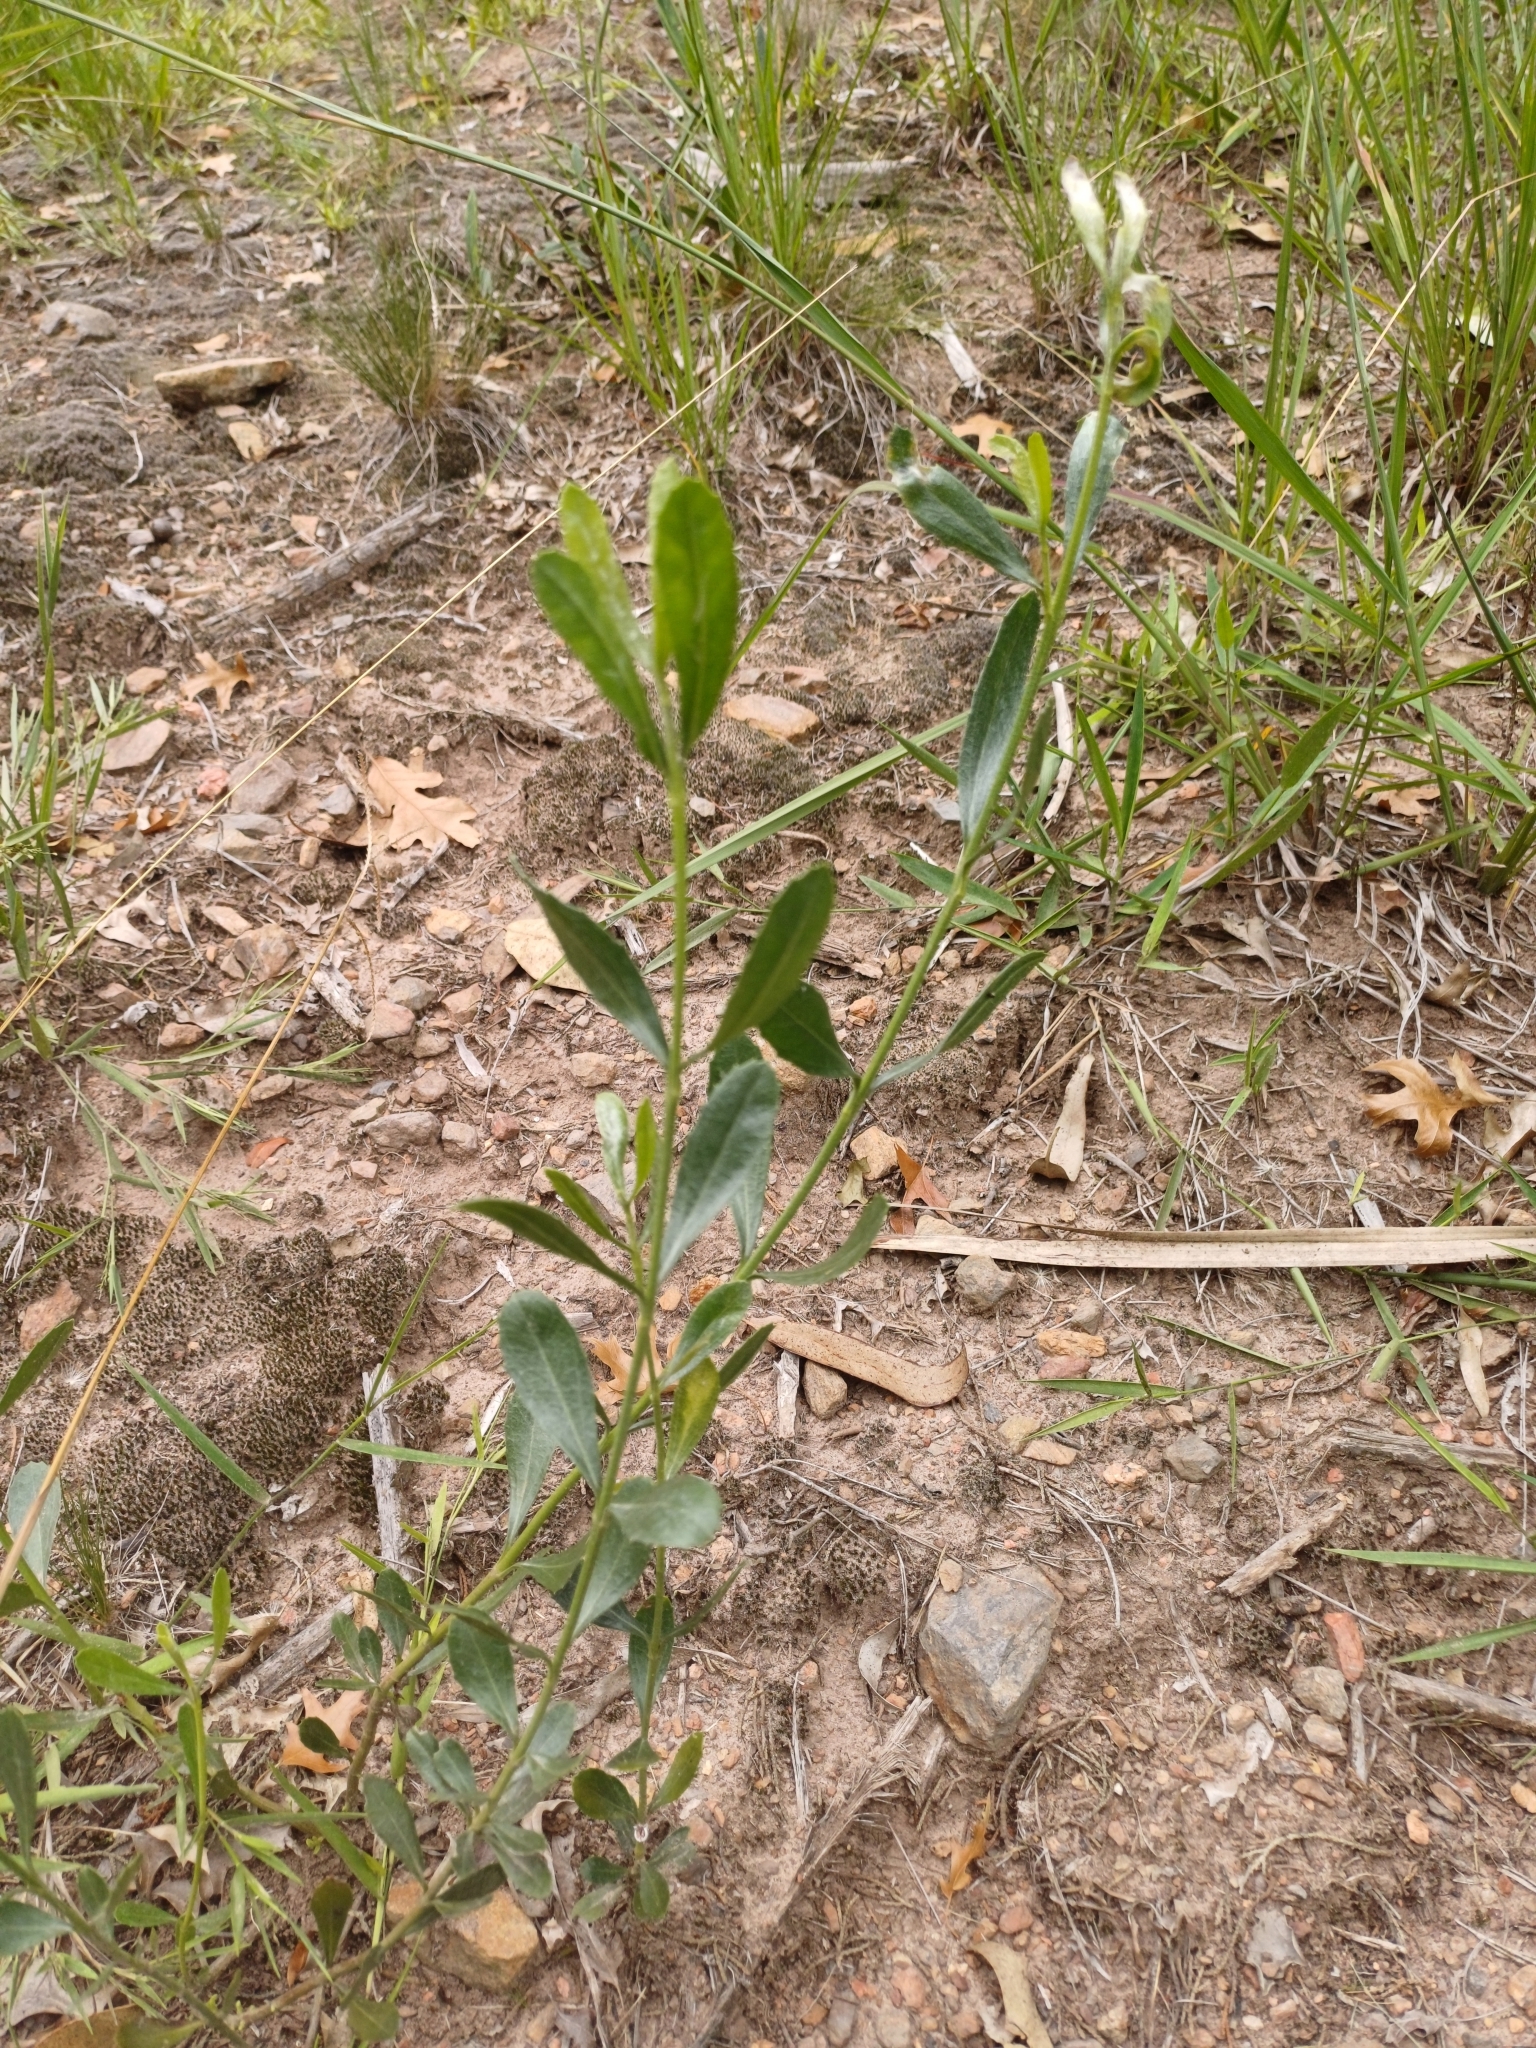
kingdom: Plantae
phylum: Tracheophyta
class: Magnoliopsida
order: Asterales
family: Asteraceae
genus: Baccharis
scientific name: Baccharis spicata
